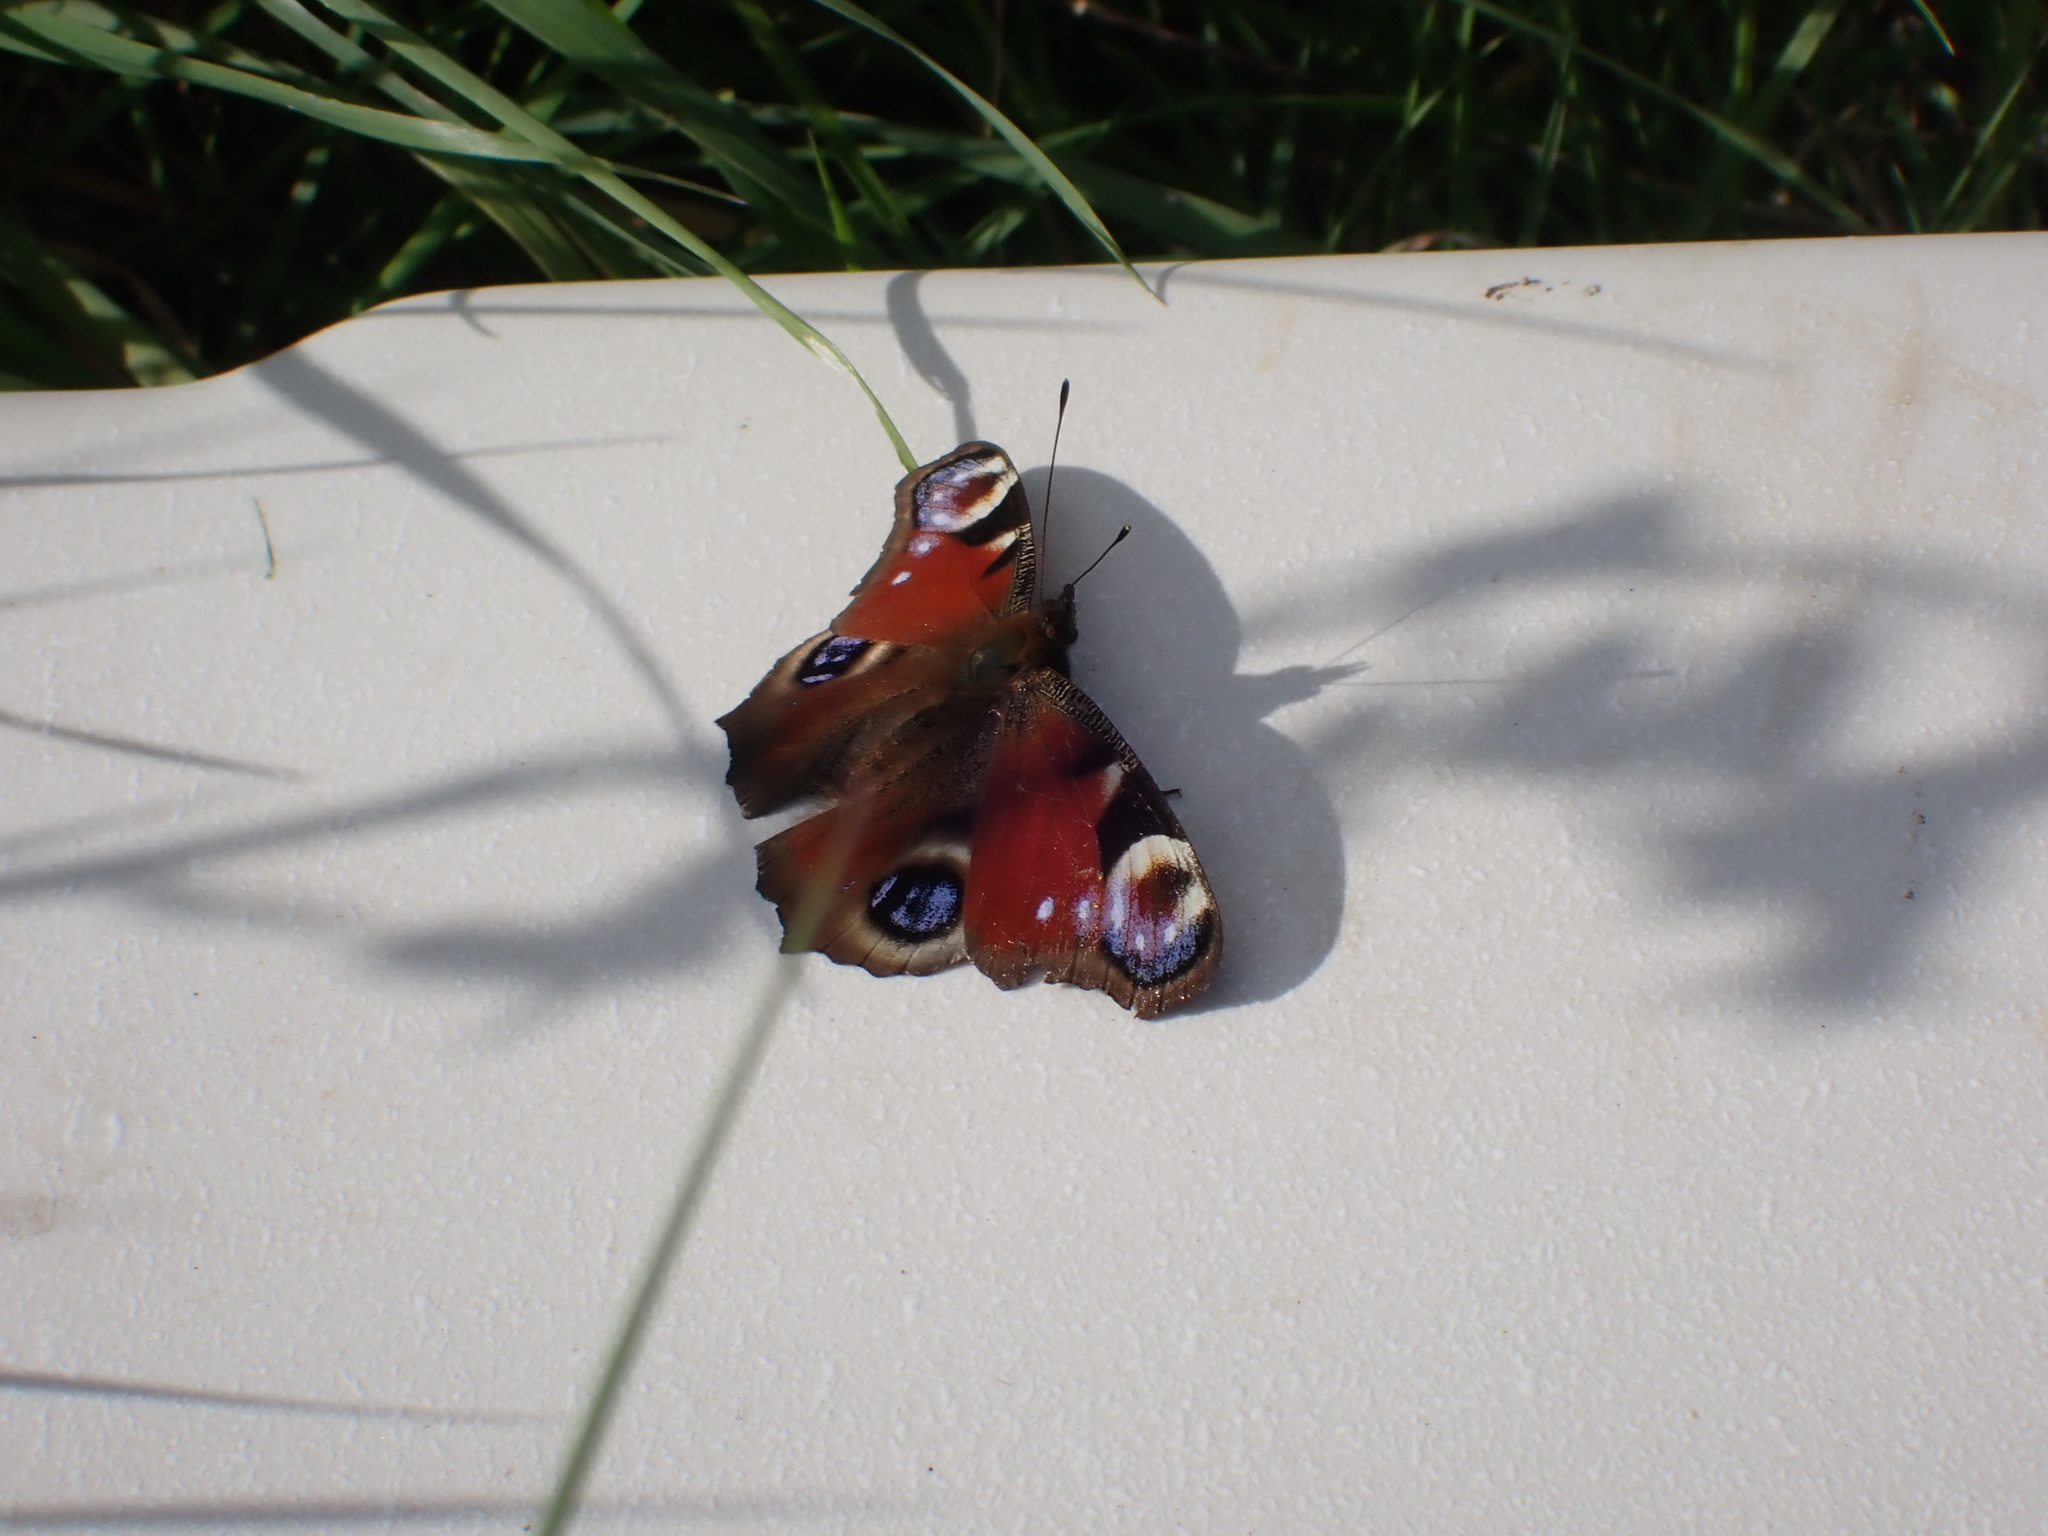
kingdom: Animalia
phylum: Arthropoda
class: Insecta
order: Lepidoptera
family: Nymphalidae
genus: Aglais
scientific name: Aglais io
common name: Peacock
